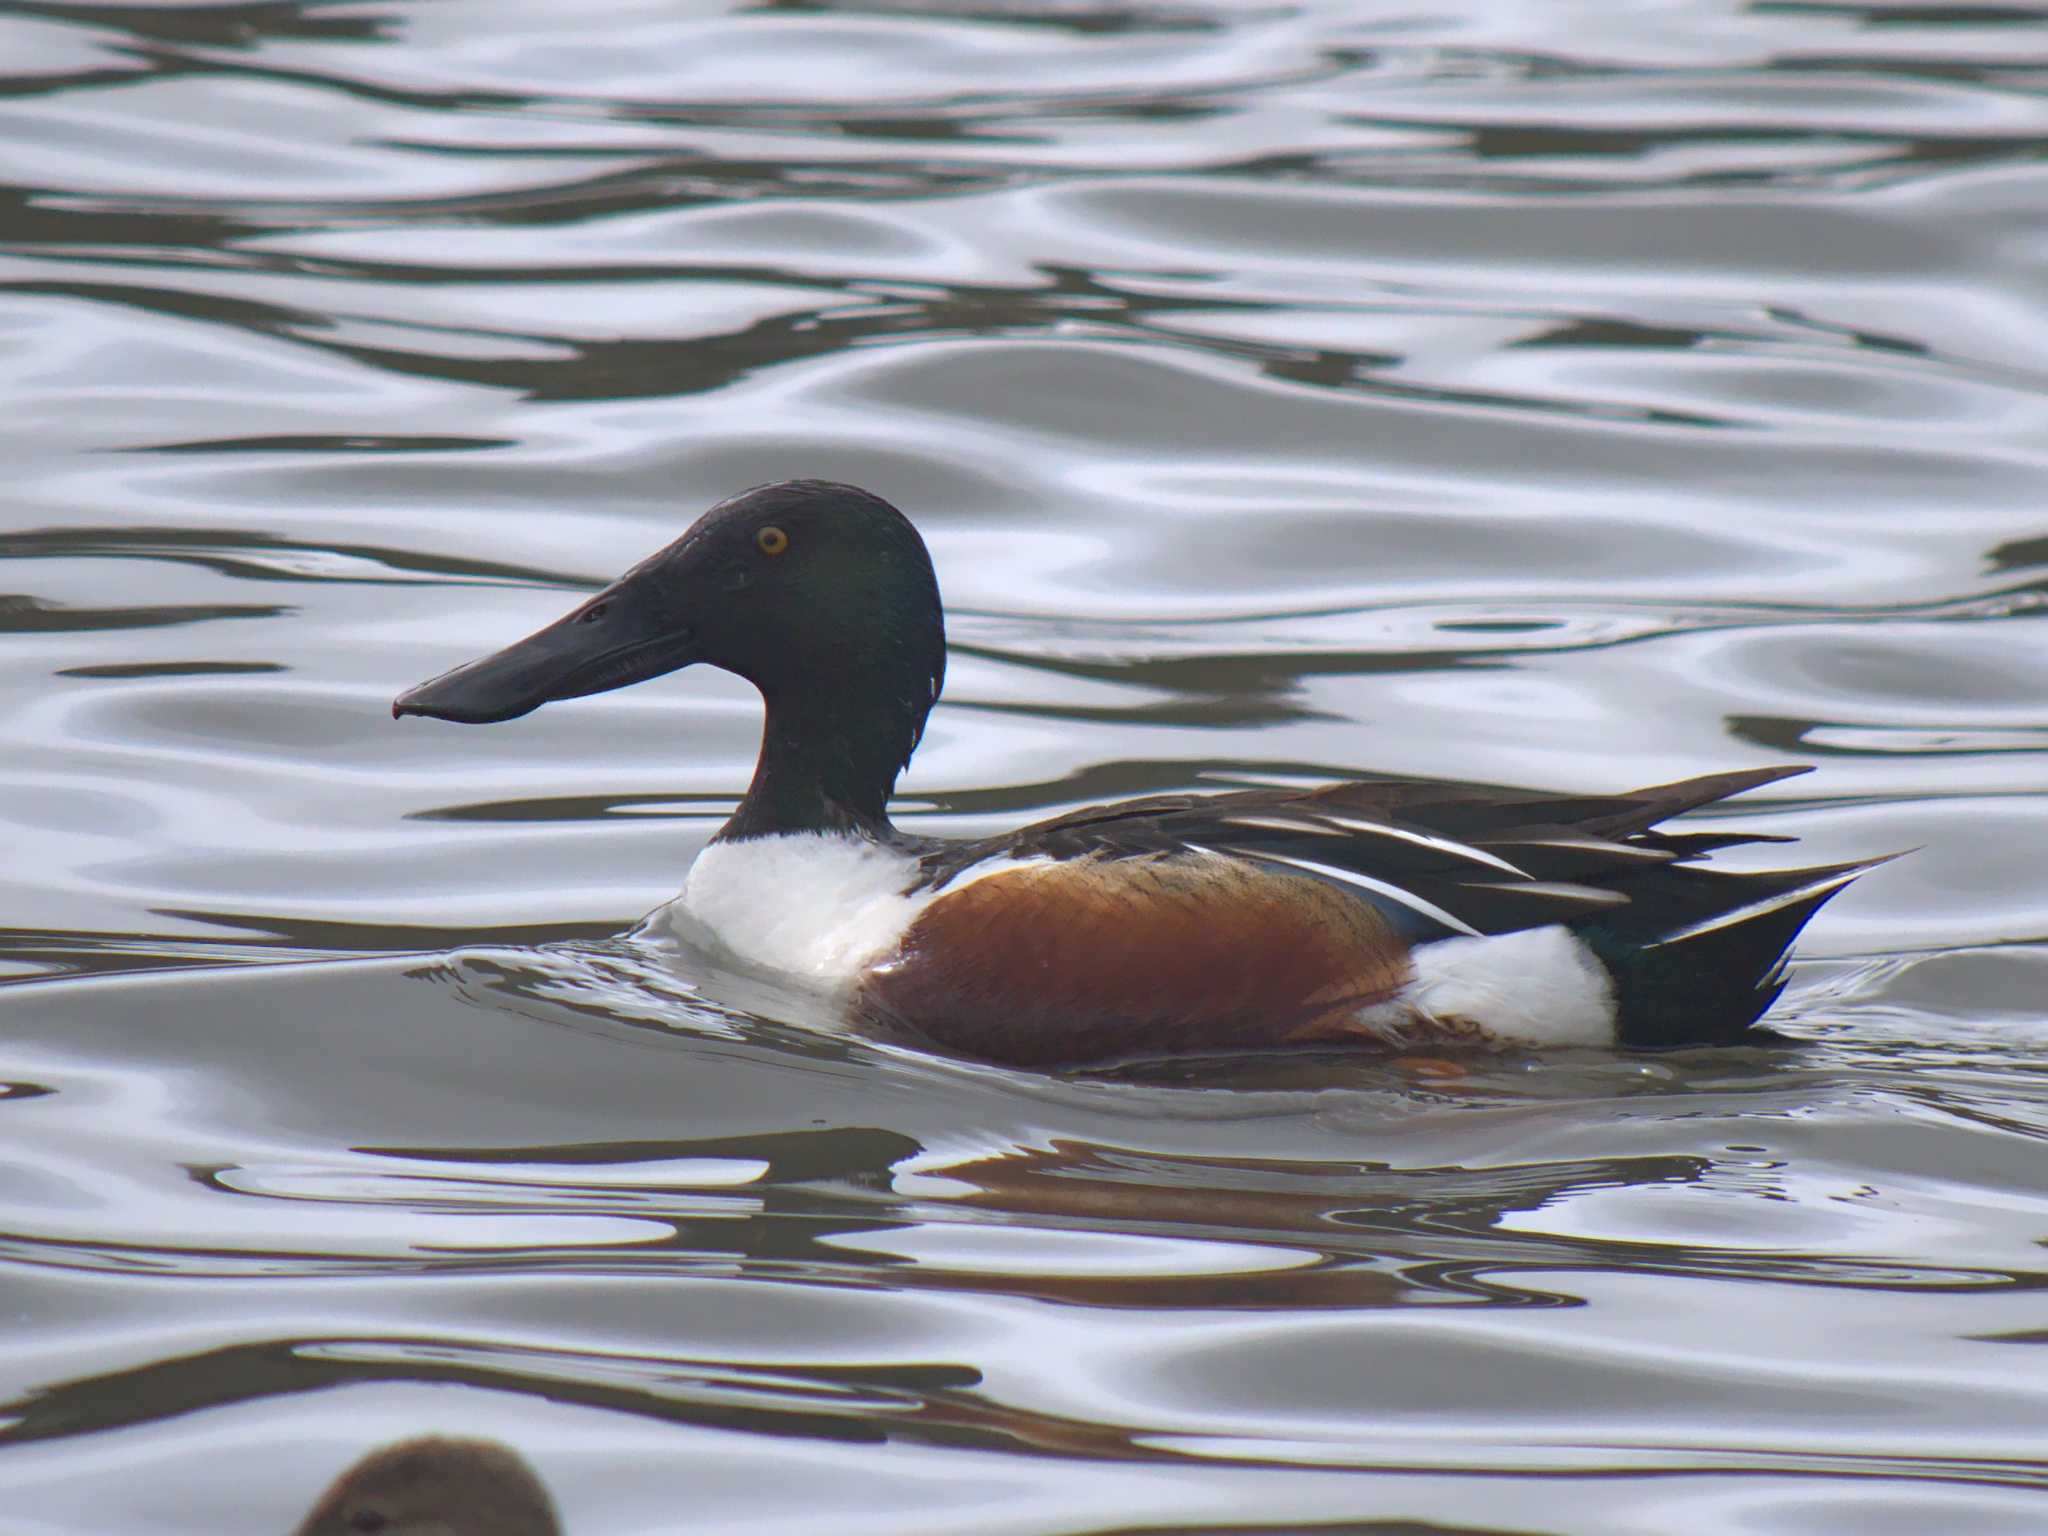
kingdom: Animalia
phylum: Chordata
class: Aves
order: Anseriformes
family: Anatidae
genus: Spatula
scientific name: Spatula clypeata
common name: Northern shoveler
